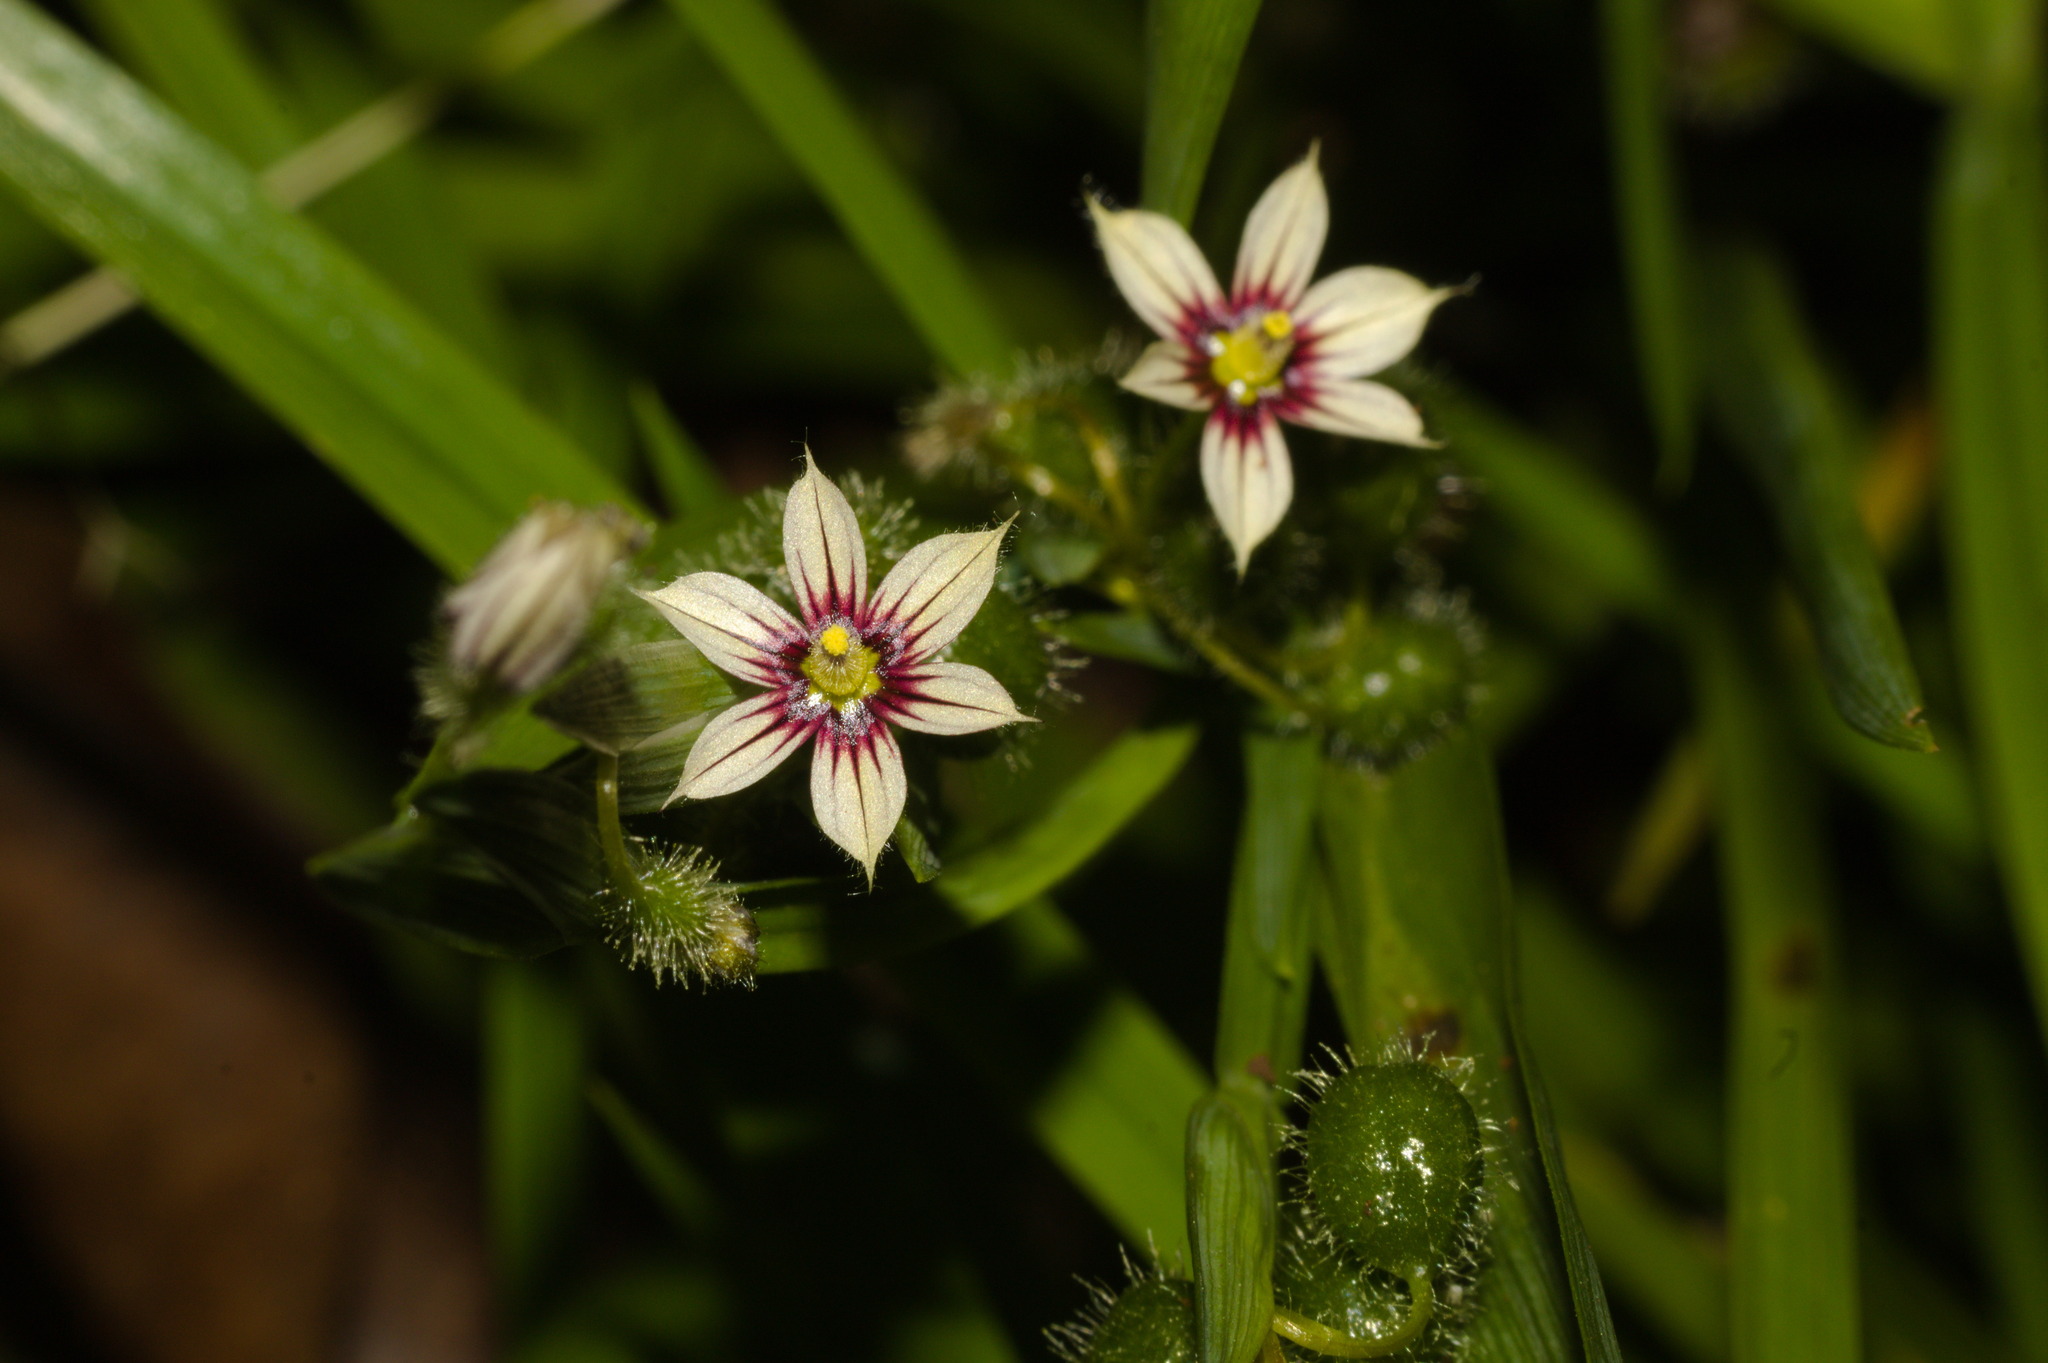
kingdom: Plantae
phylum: Tracheophyta
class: Liliopsida
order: Asparagales
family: Iridaceae
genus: Sisyrinchium
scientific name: Sisyrinchium platycaule
